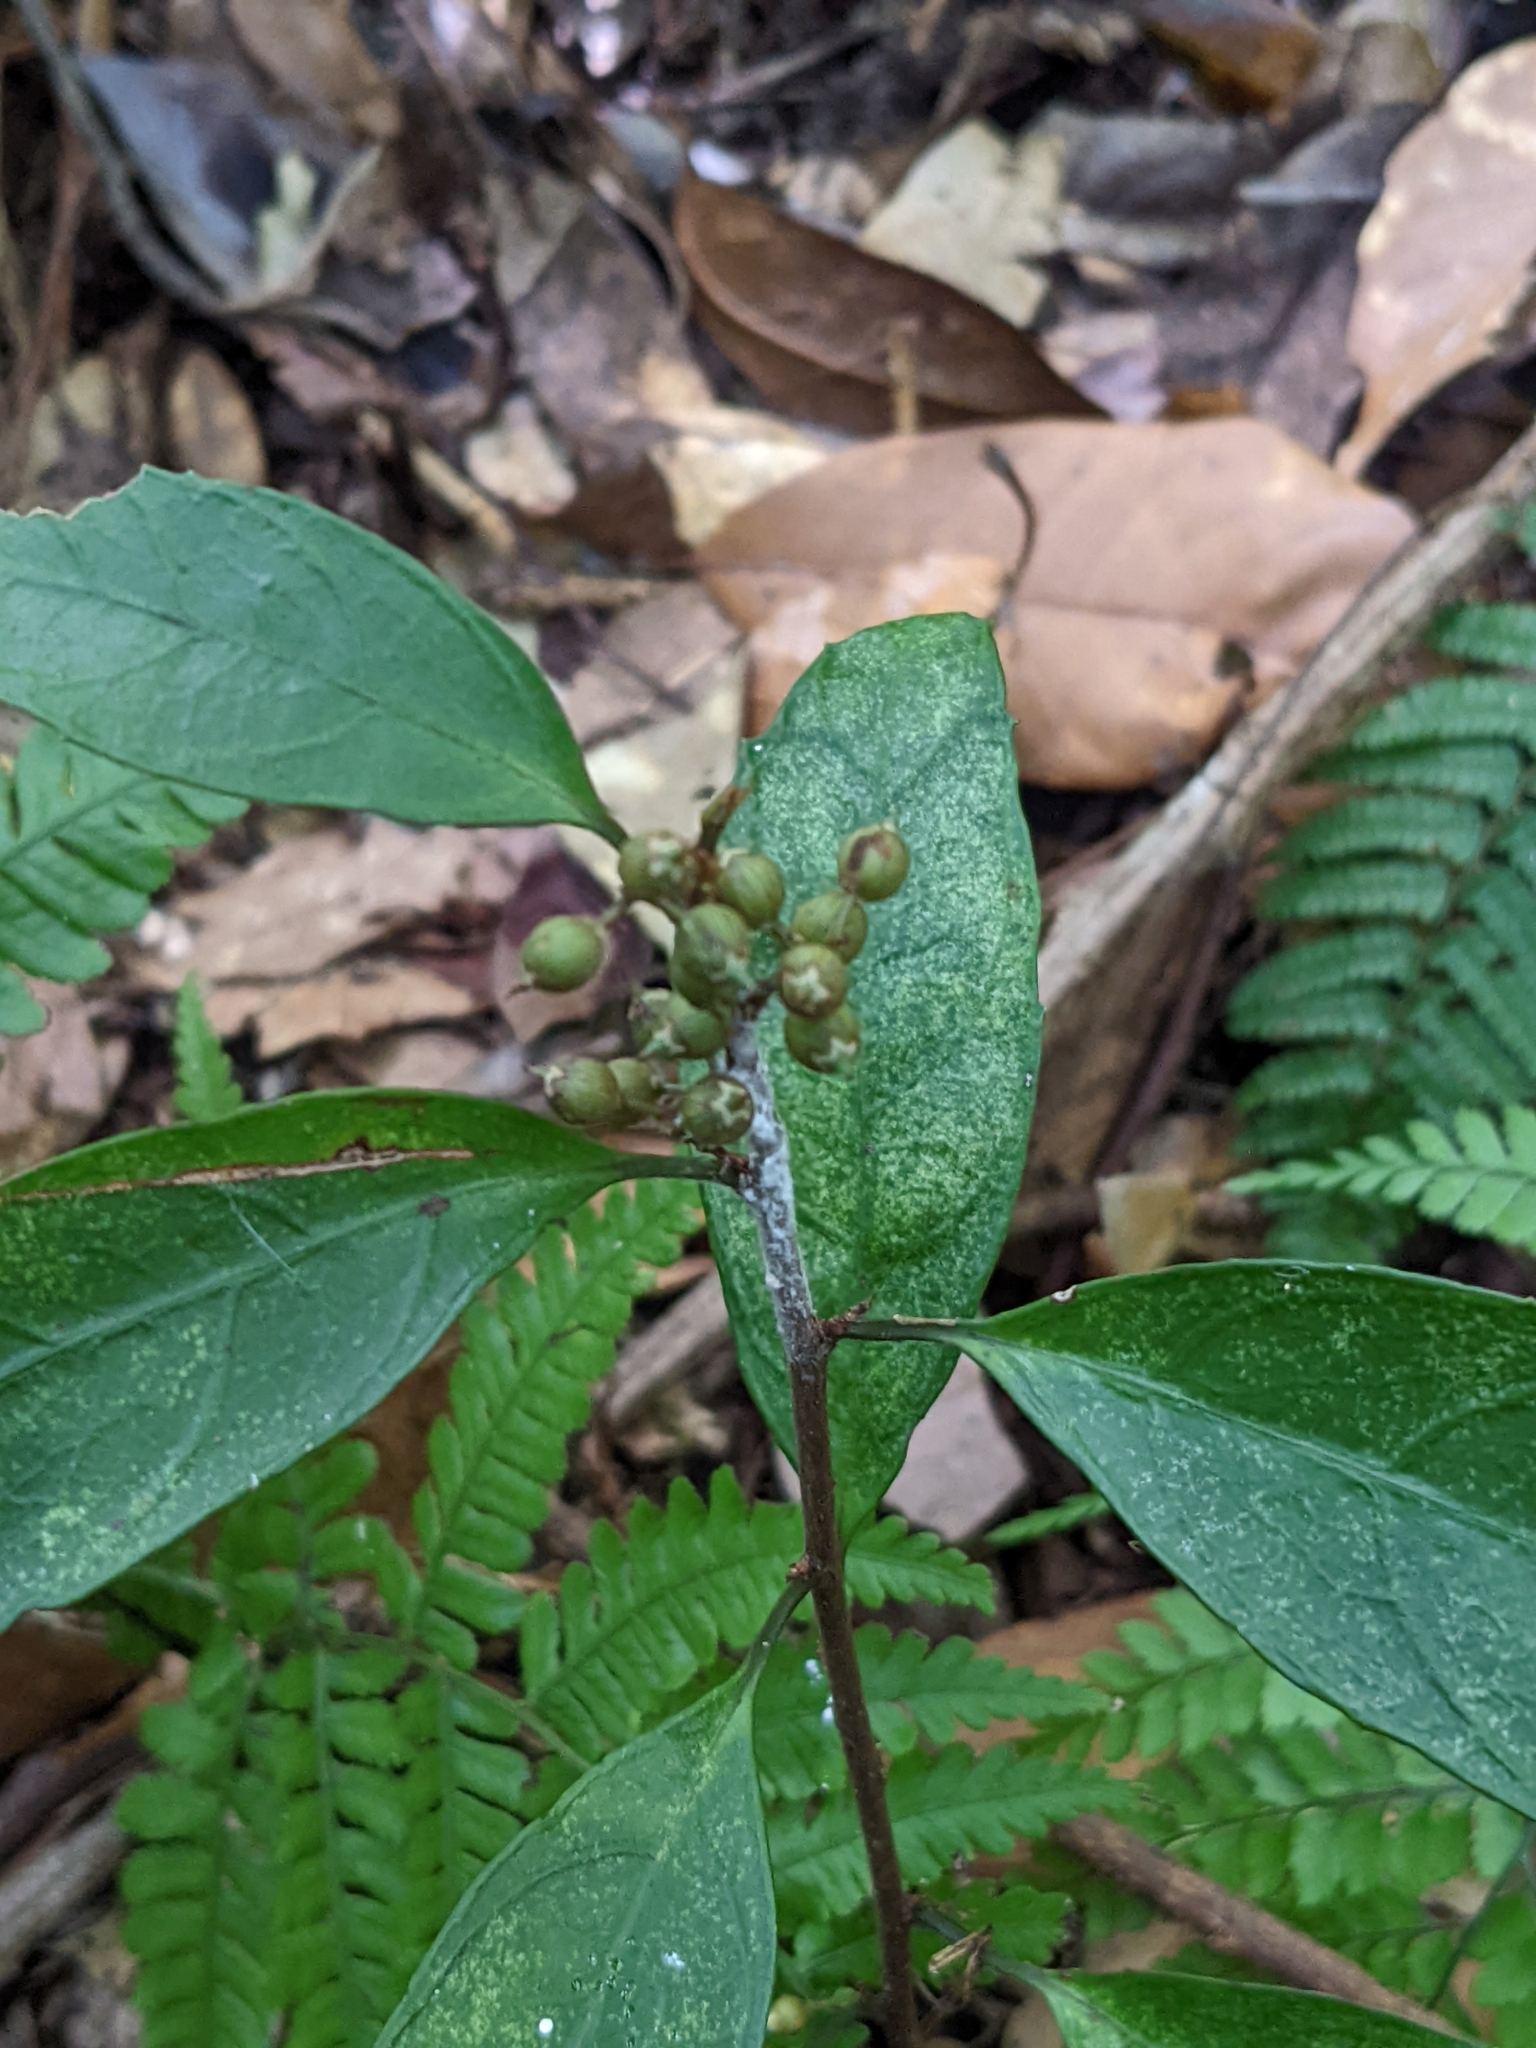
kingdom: Plantae
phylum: Tracheophyta
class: Magnoliopsida
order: Ericales
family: Primulaceae
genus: Maesa
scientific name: Maesa japonica
